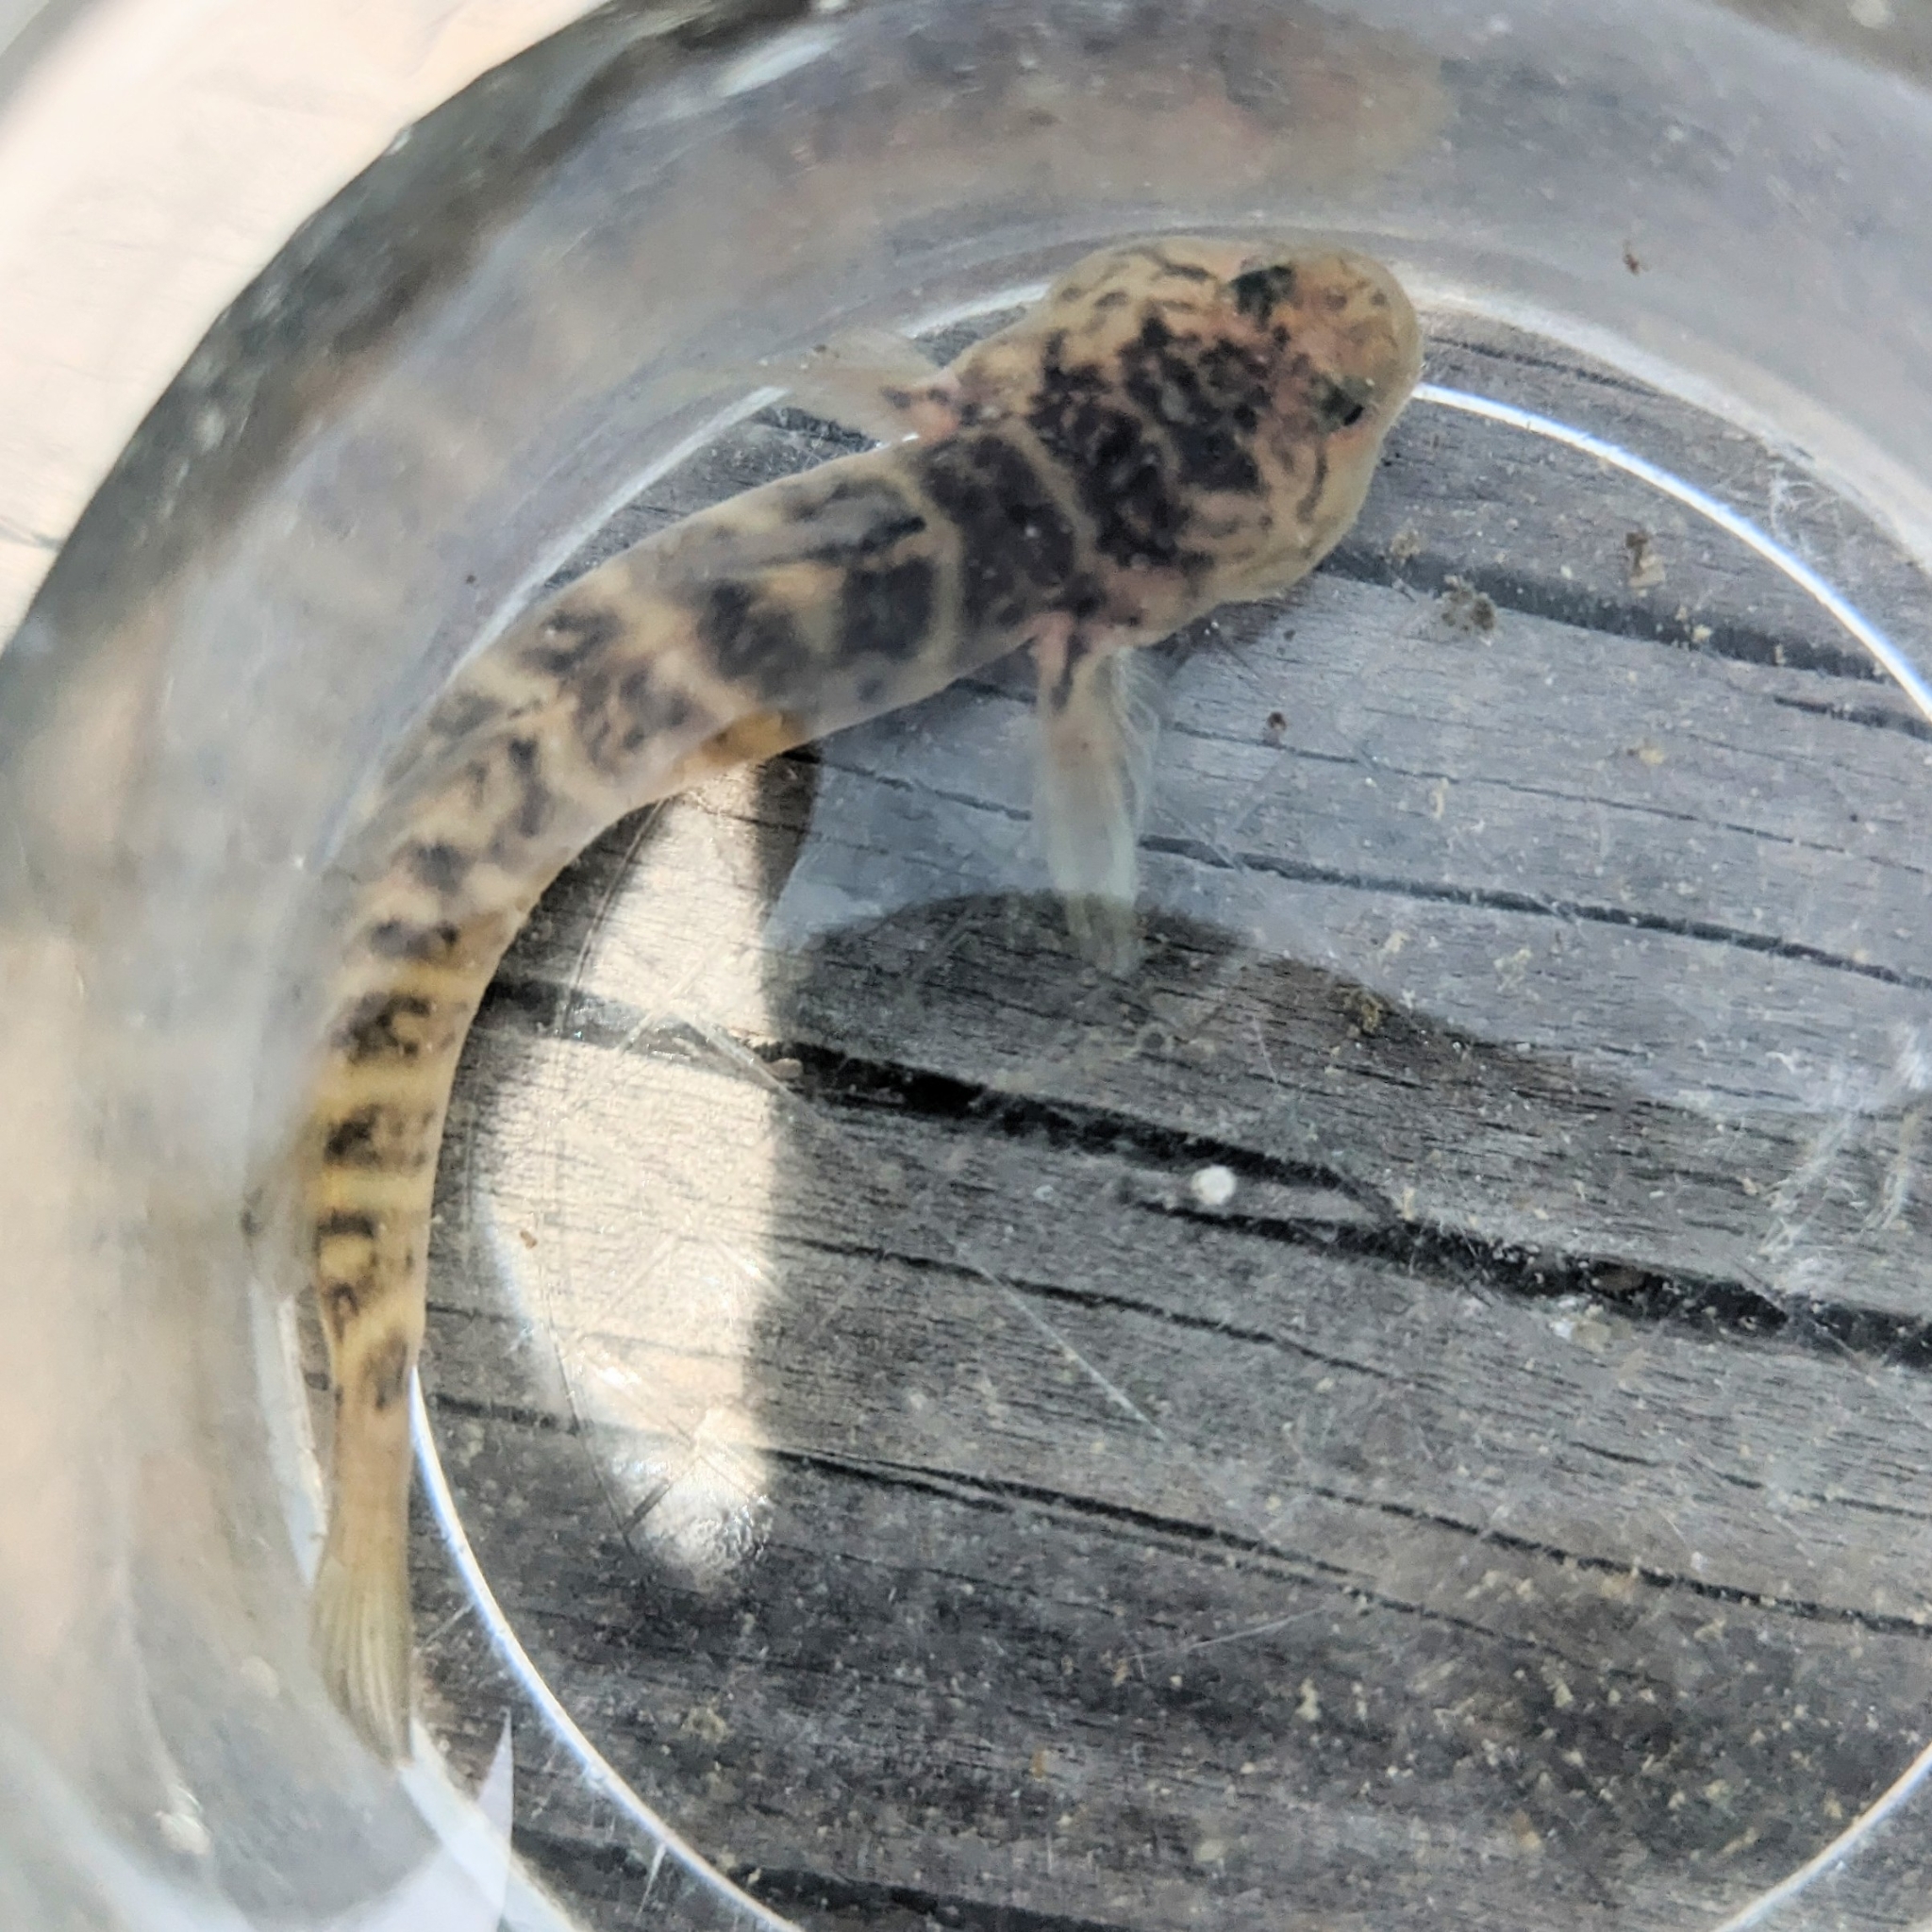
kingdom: Animalia
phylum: Chordata
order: Perciformes
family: Gobiidae
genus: Gobiosoma
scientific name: Gobiosoma bosc
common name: Naked goby
